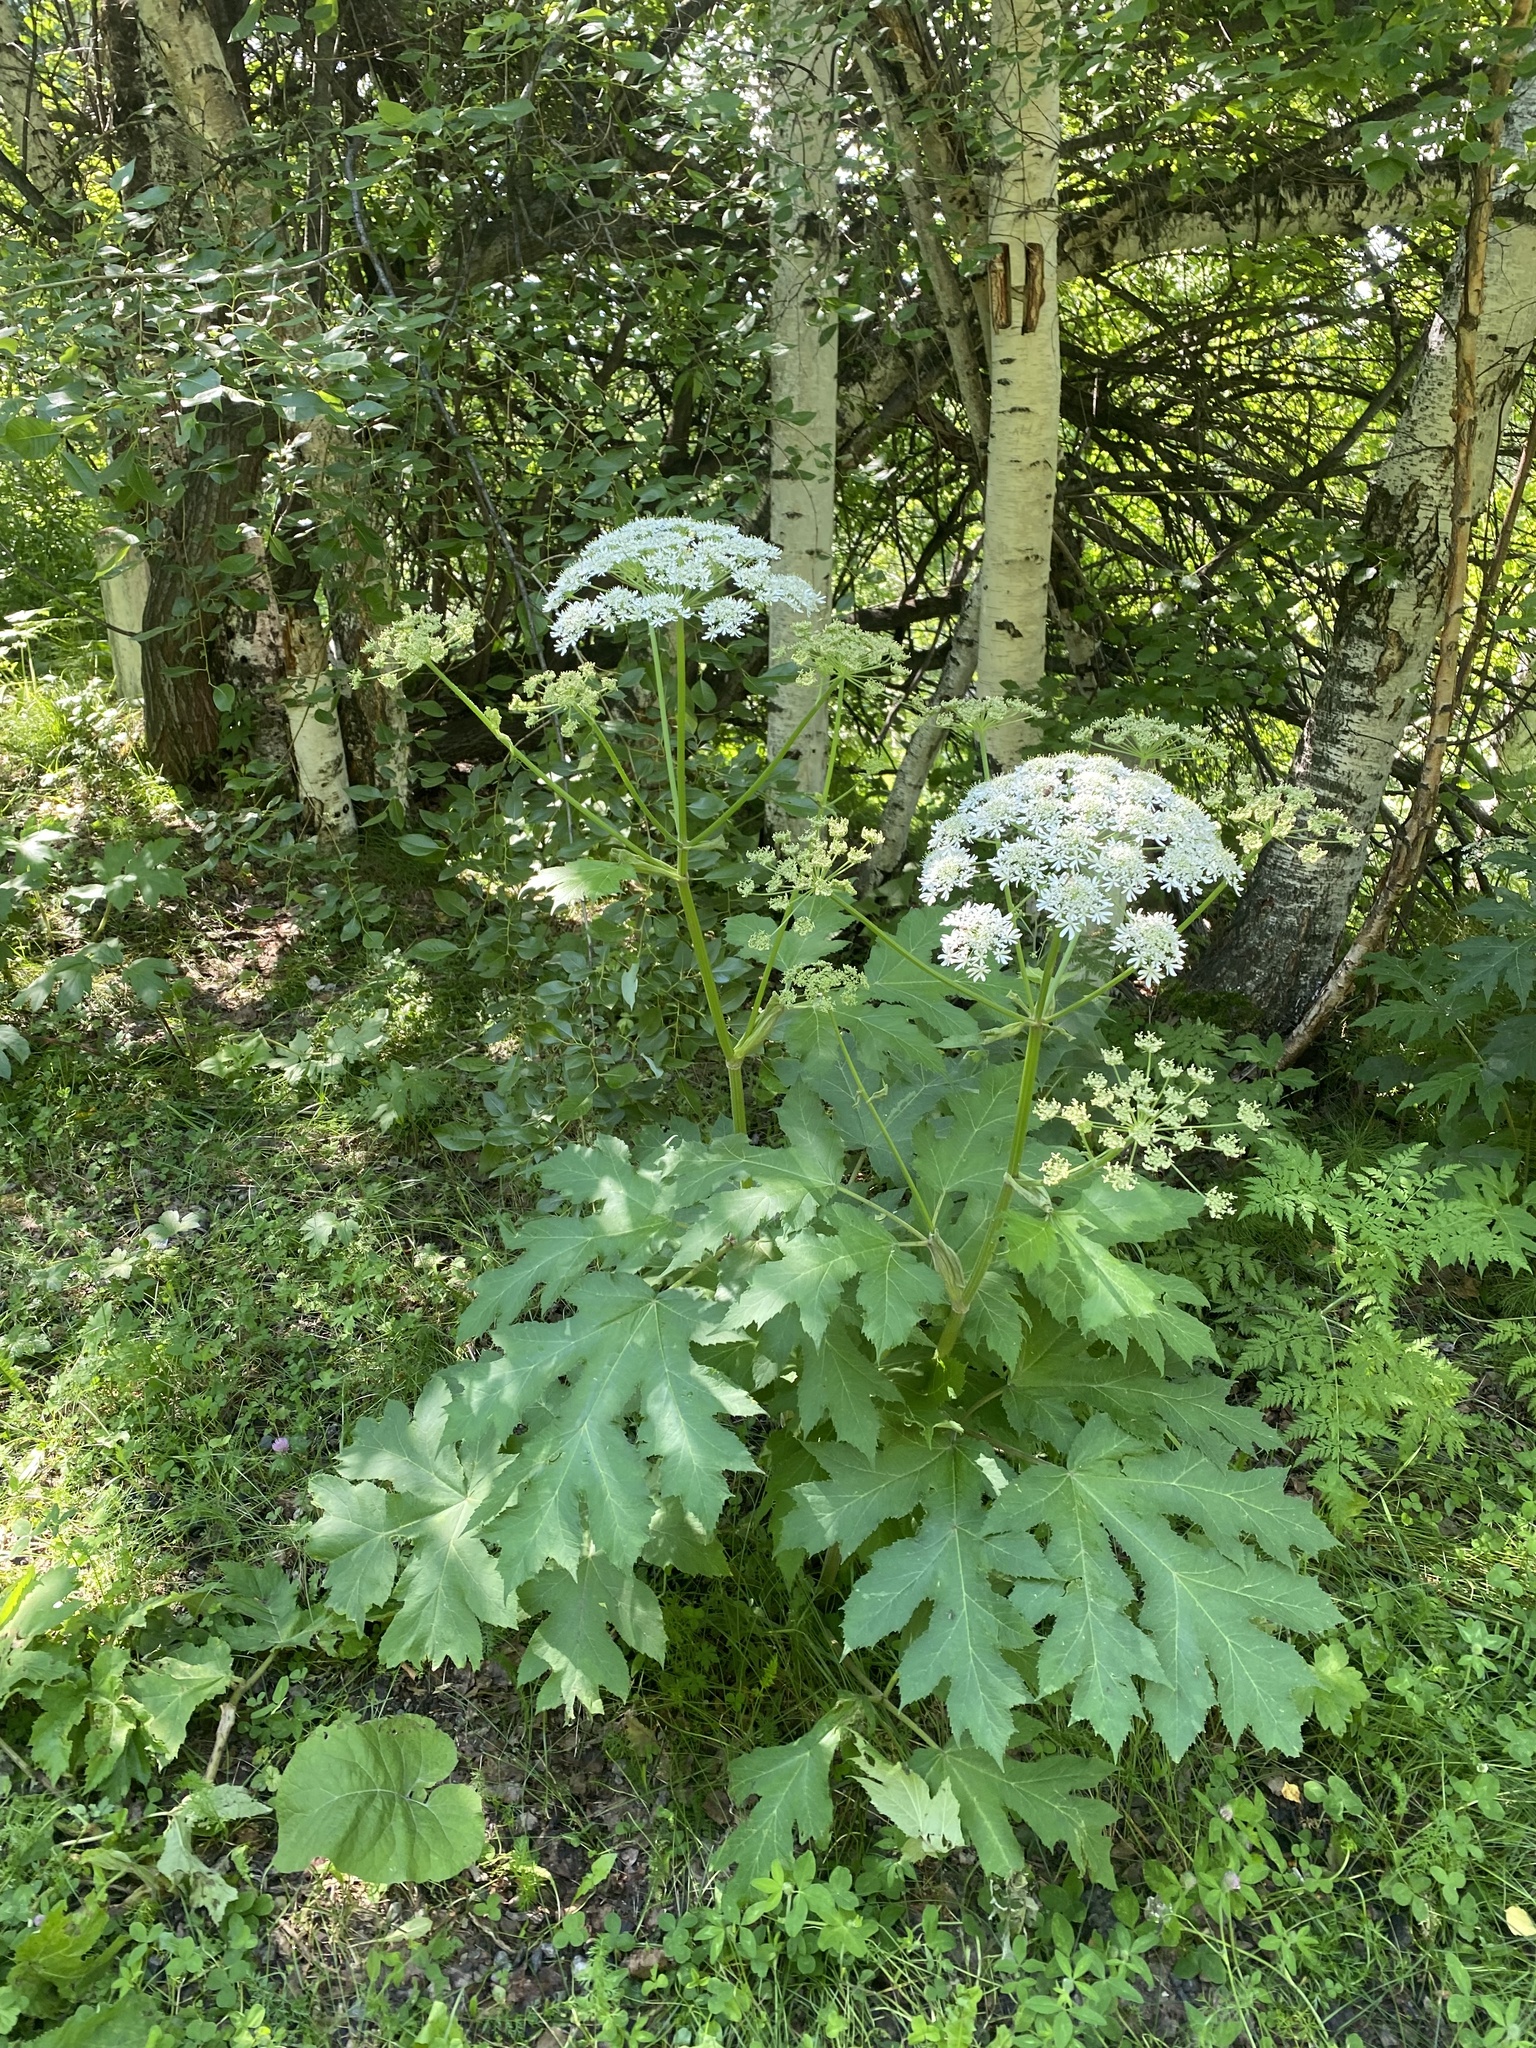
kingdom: Plantae
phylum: Tracheophyta
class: Magnoliopsida
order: Apiales
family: Apiaceae
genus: Heracleum
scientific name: Heracleum dissectum
